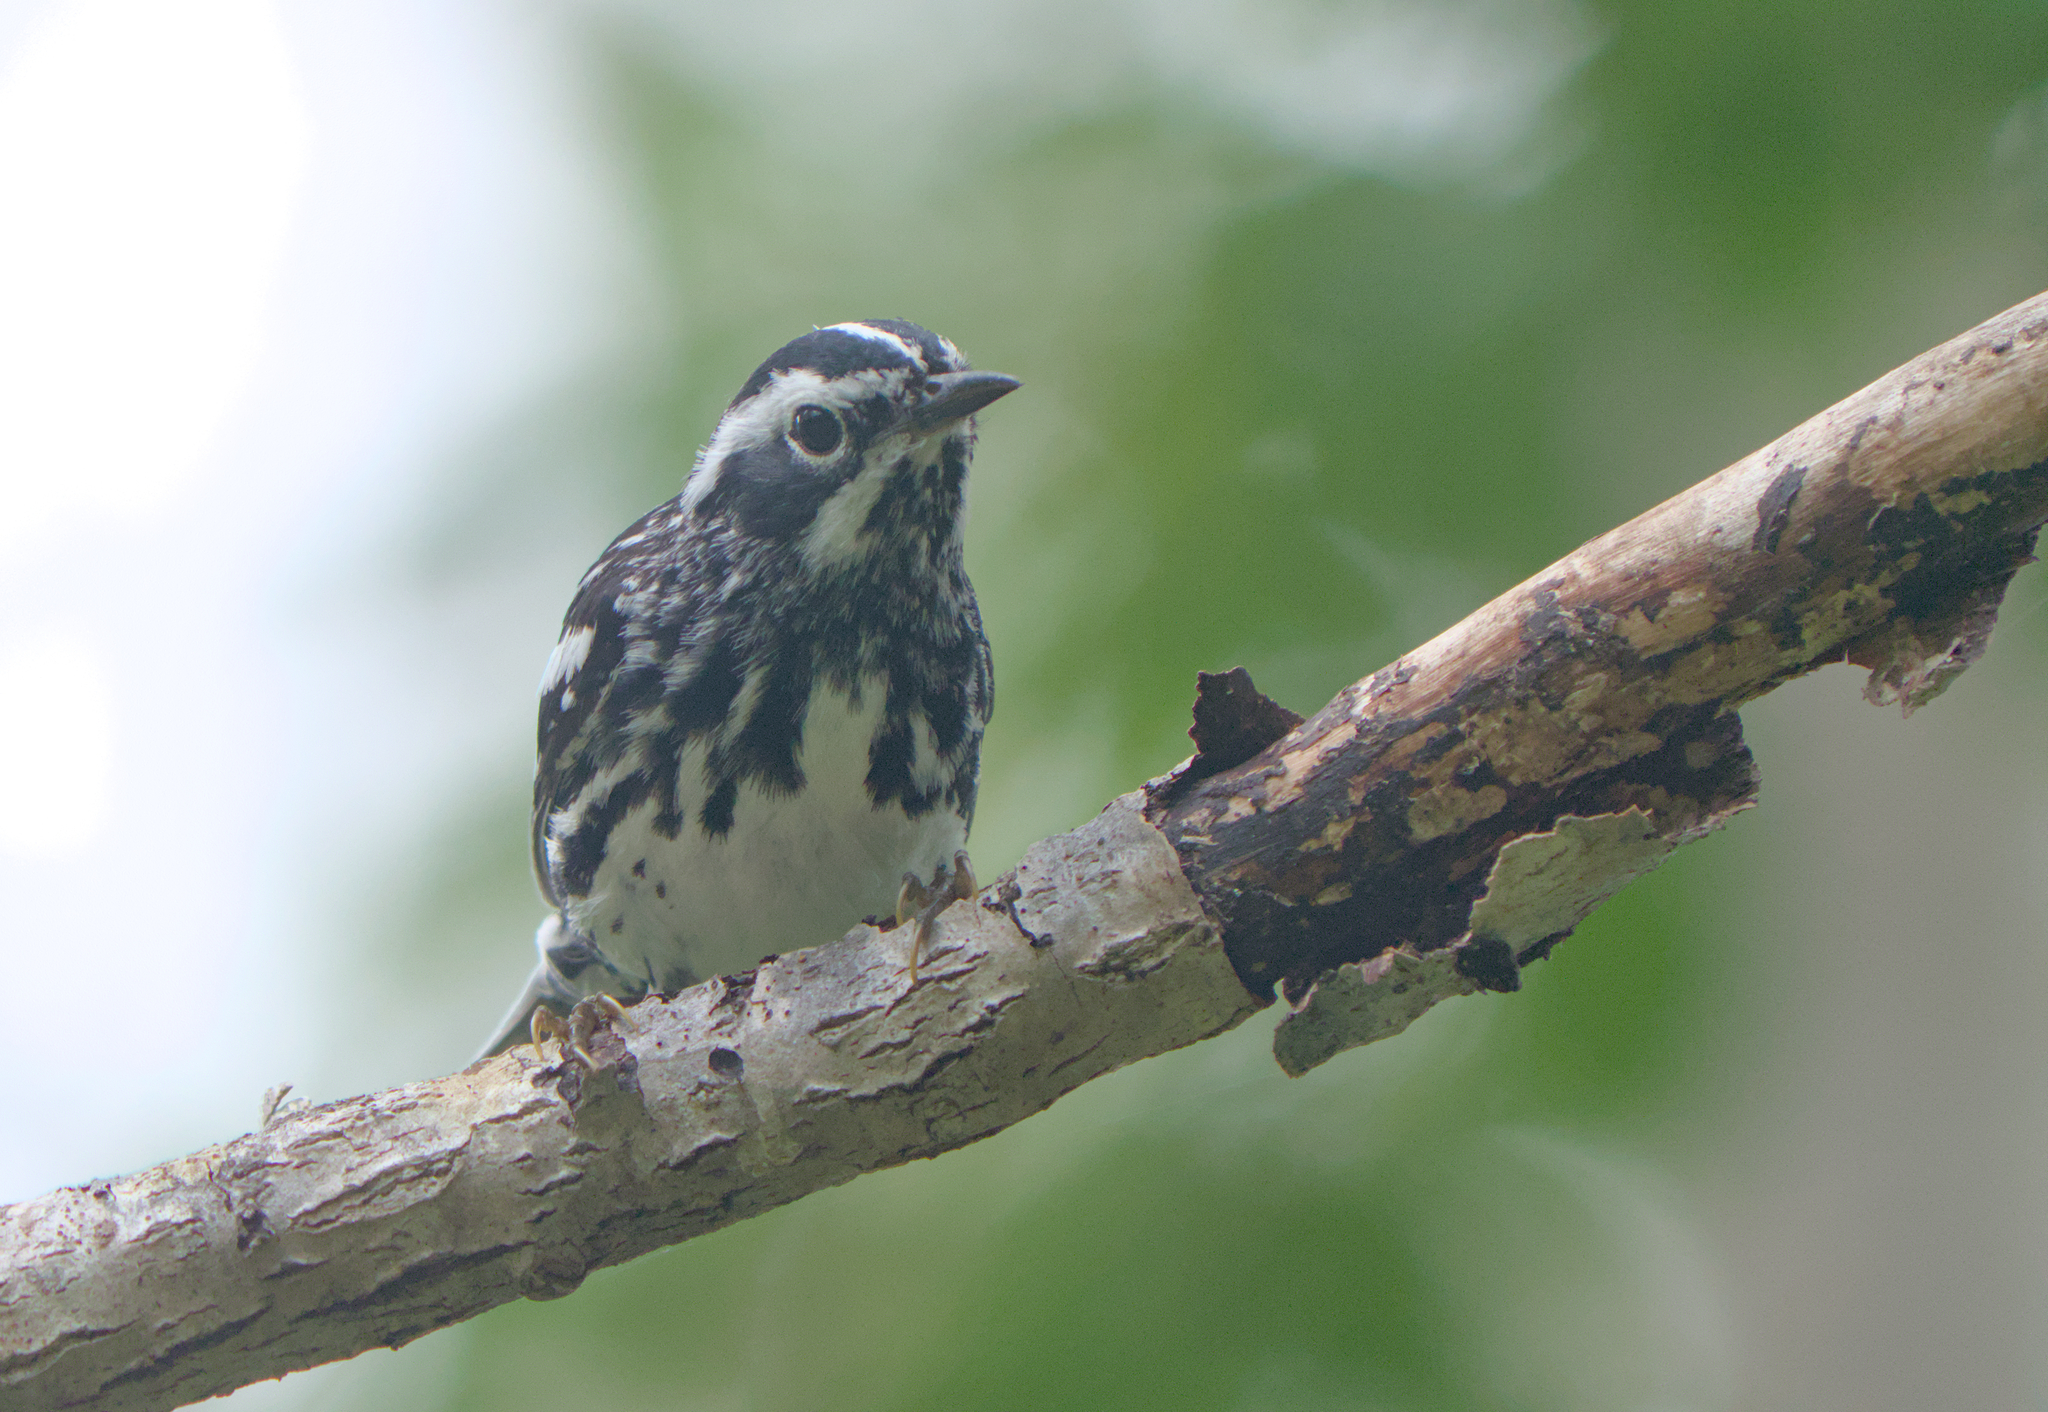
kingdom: Animalia
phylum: Chordata
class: Aves
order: Passeriformes
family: Parulidae
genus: Mniotilta
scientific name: Mniotilta varia
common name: Black-and-white warbler
